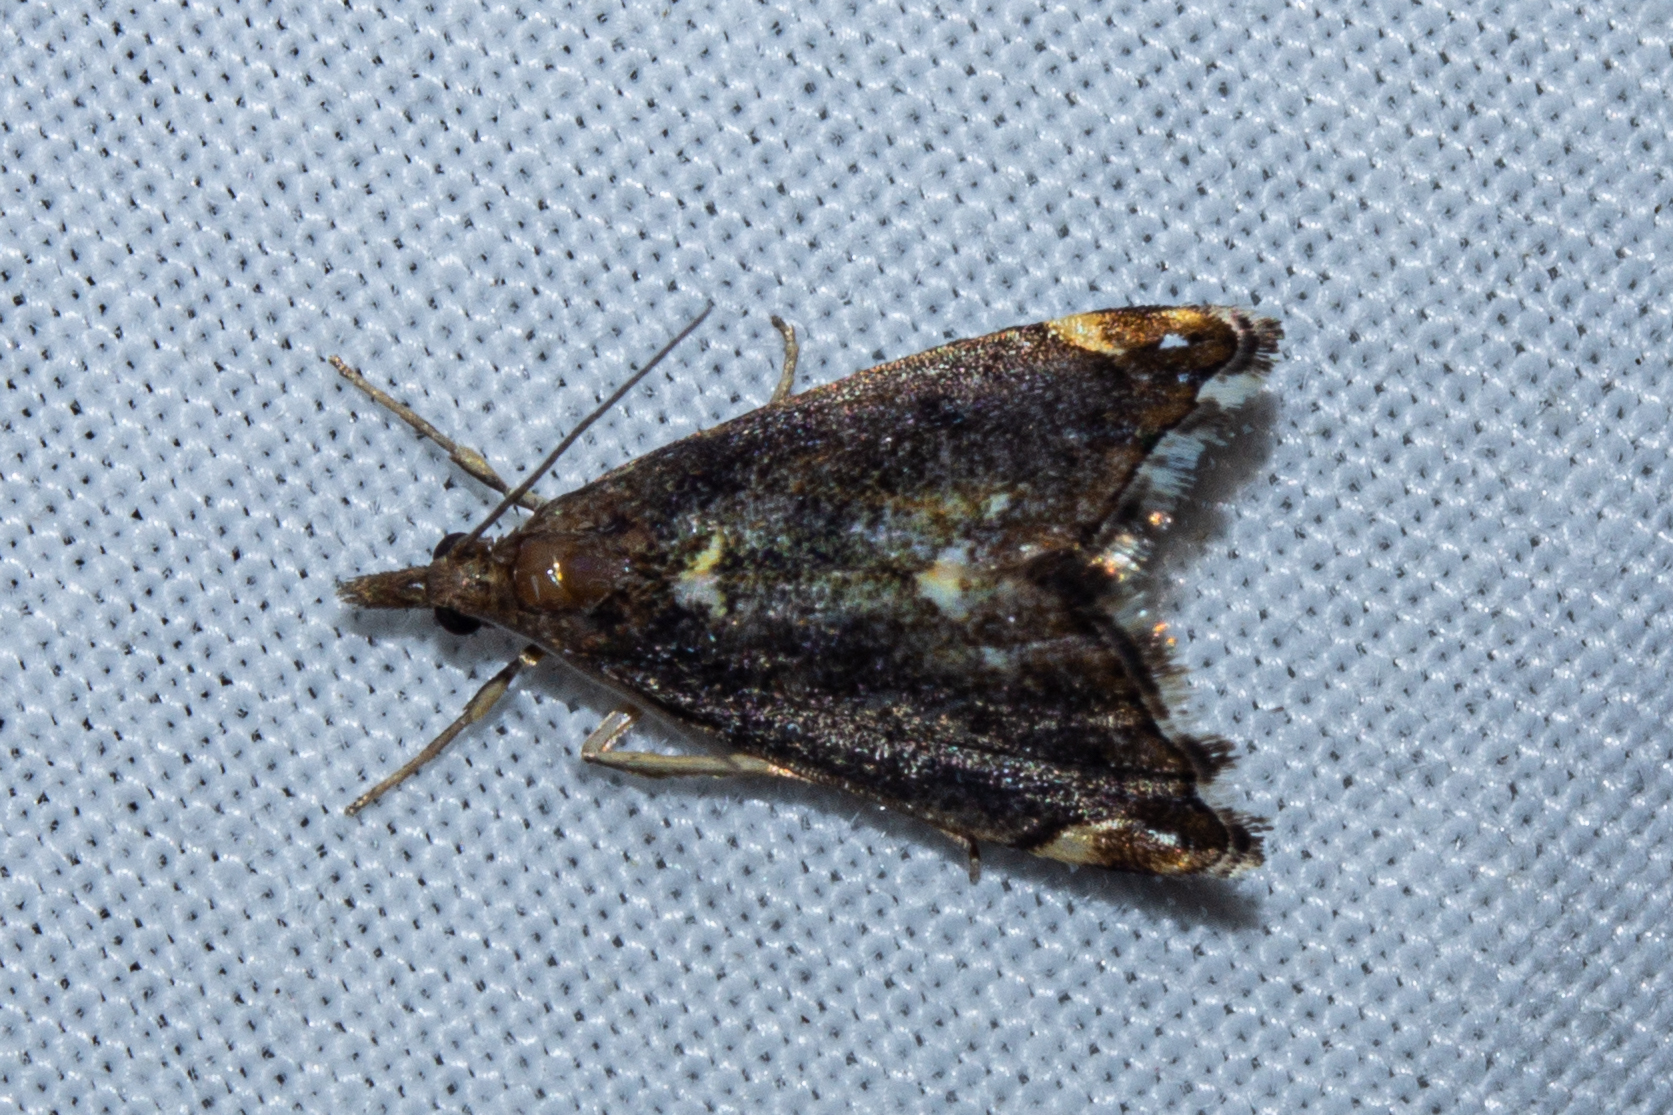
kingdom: Animalia
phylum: Arthropoda
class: Insecta
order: Lepidoptera
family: Crambidae
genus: Glaucocharis
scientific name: Glaucocharis pyrsophanes
